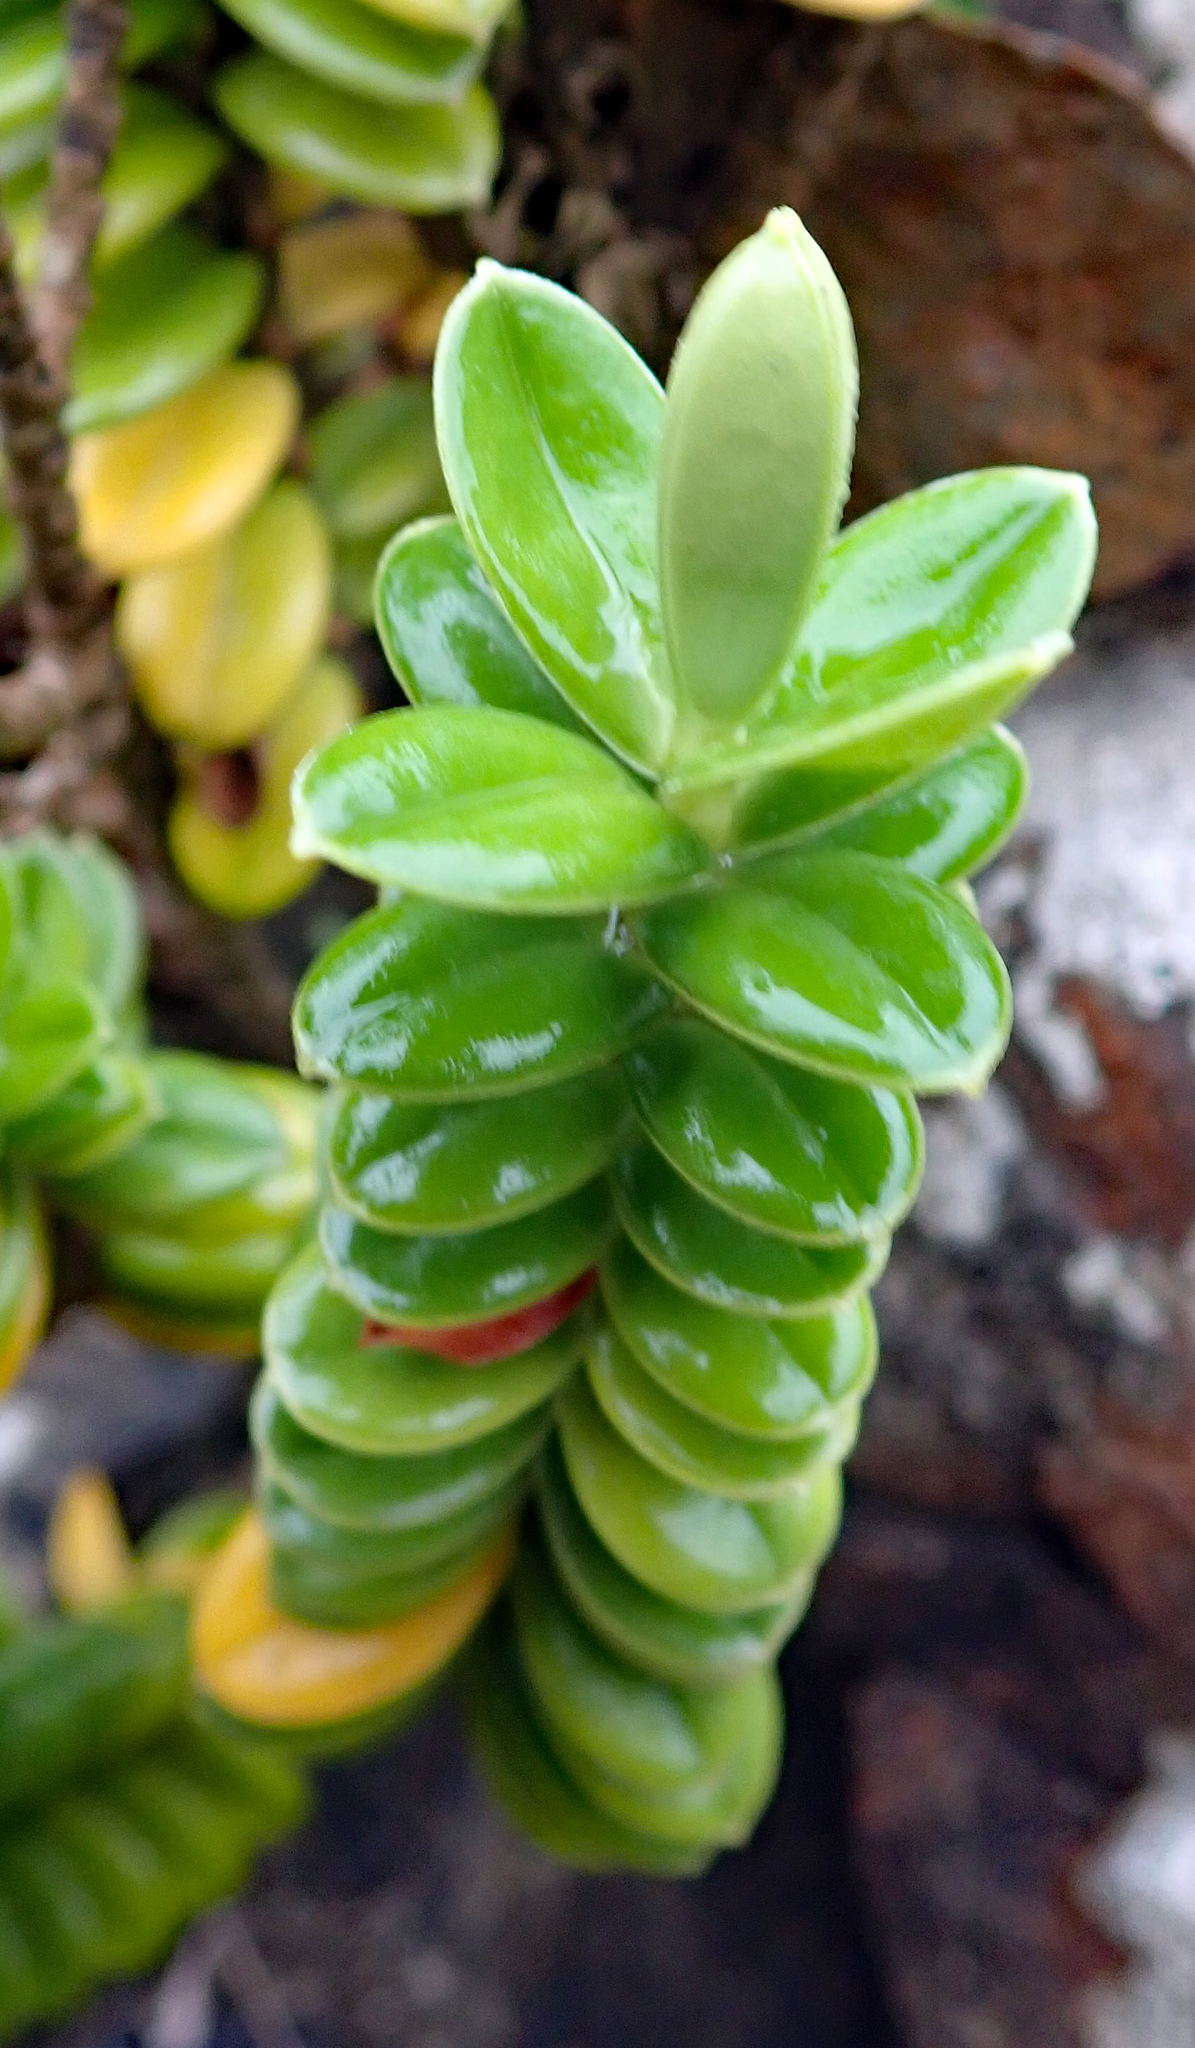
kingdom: Plantae
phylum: Tracheophyta
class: Magnoliopsida
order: Lamiales
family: Plantaginaceae
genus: Veronica
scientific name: Veronica elliptica
